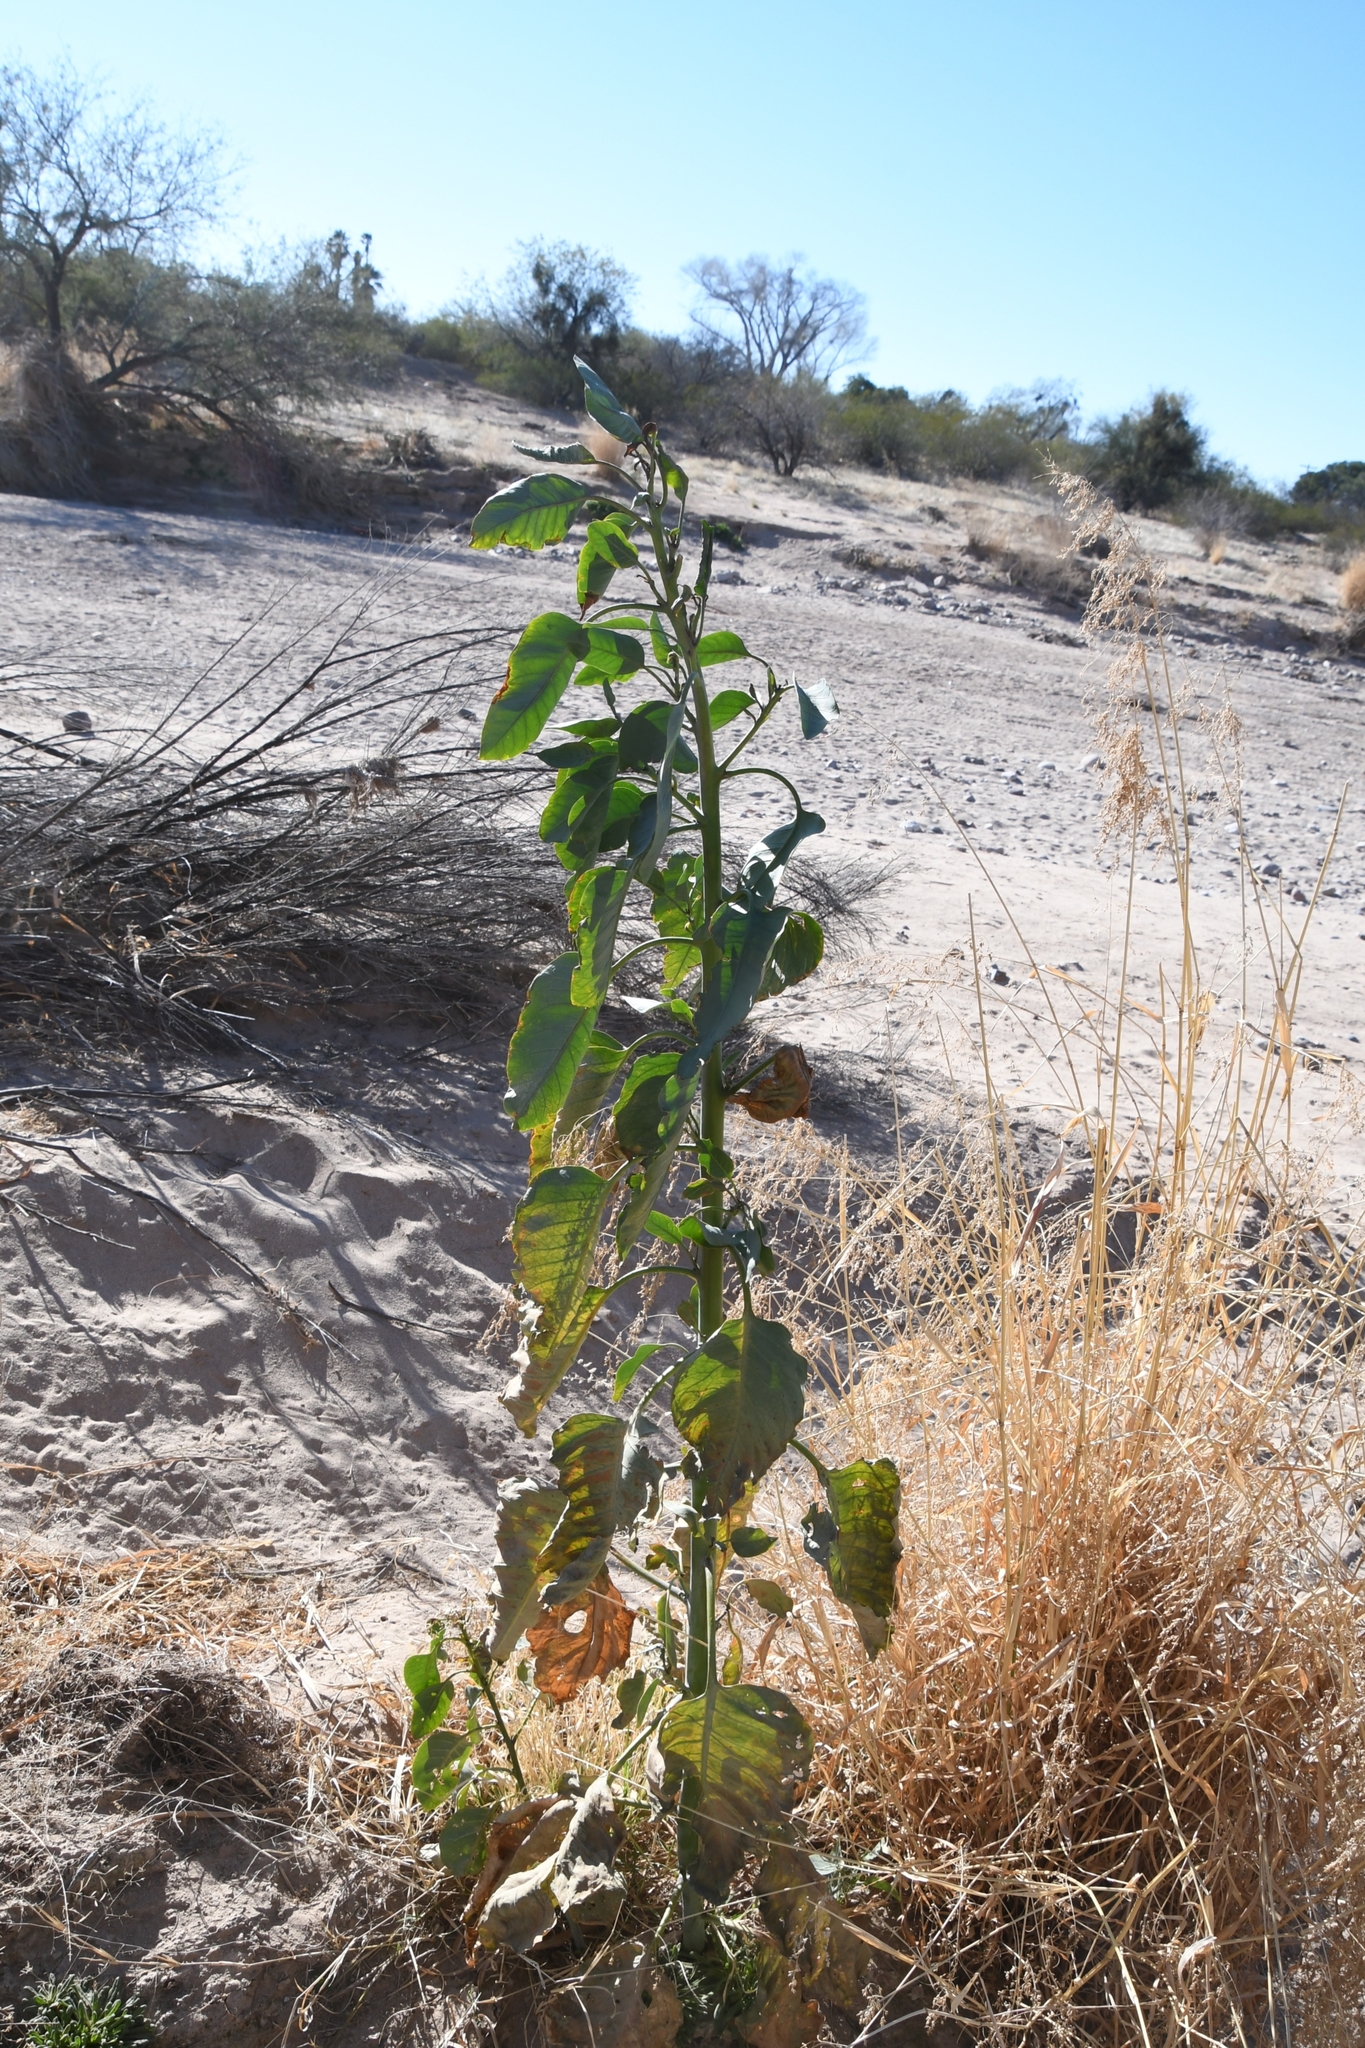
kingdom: Plantae
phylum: Tracheophyta
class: Magnoliopsida
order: Solanales
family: Solanaceae
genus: Nicotiana
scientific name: Nicotiana glauca
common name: Tree tobacco
